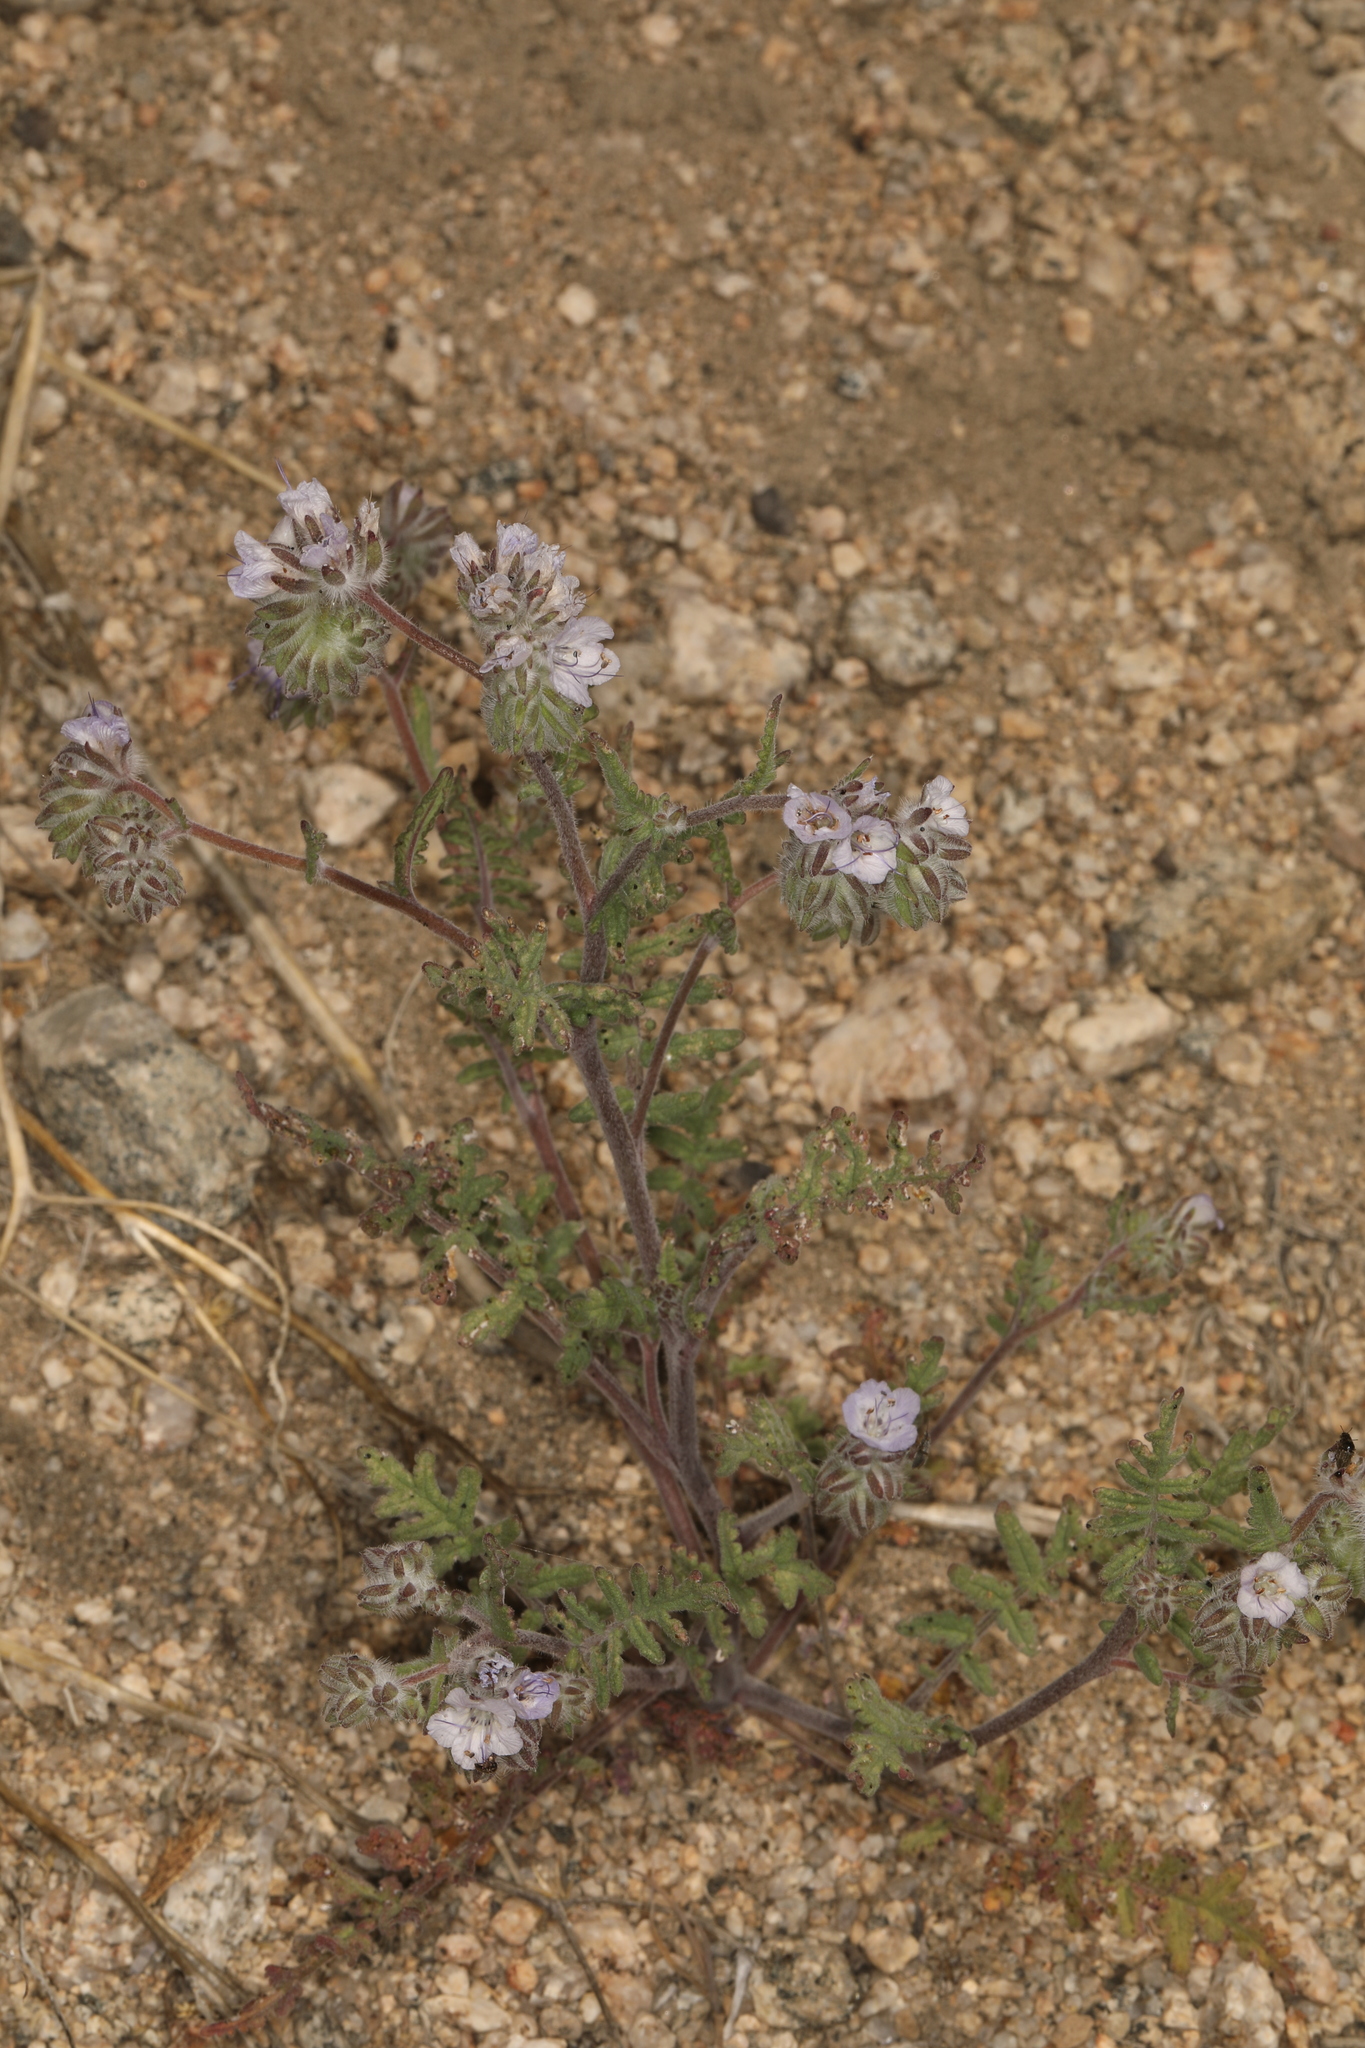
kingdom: Plantae
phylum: Tracheophyta
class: Magnoliopsida
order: Boraginales
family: Hydrophyllaceae
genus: Phacelia
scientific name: Phacelia distans
